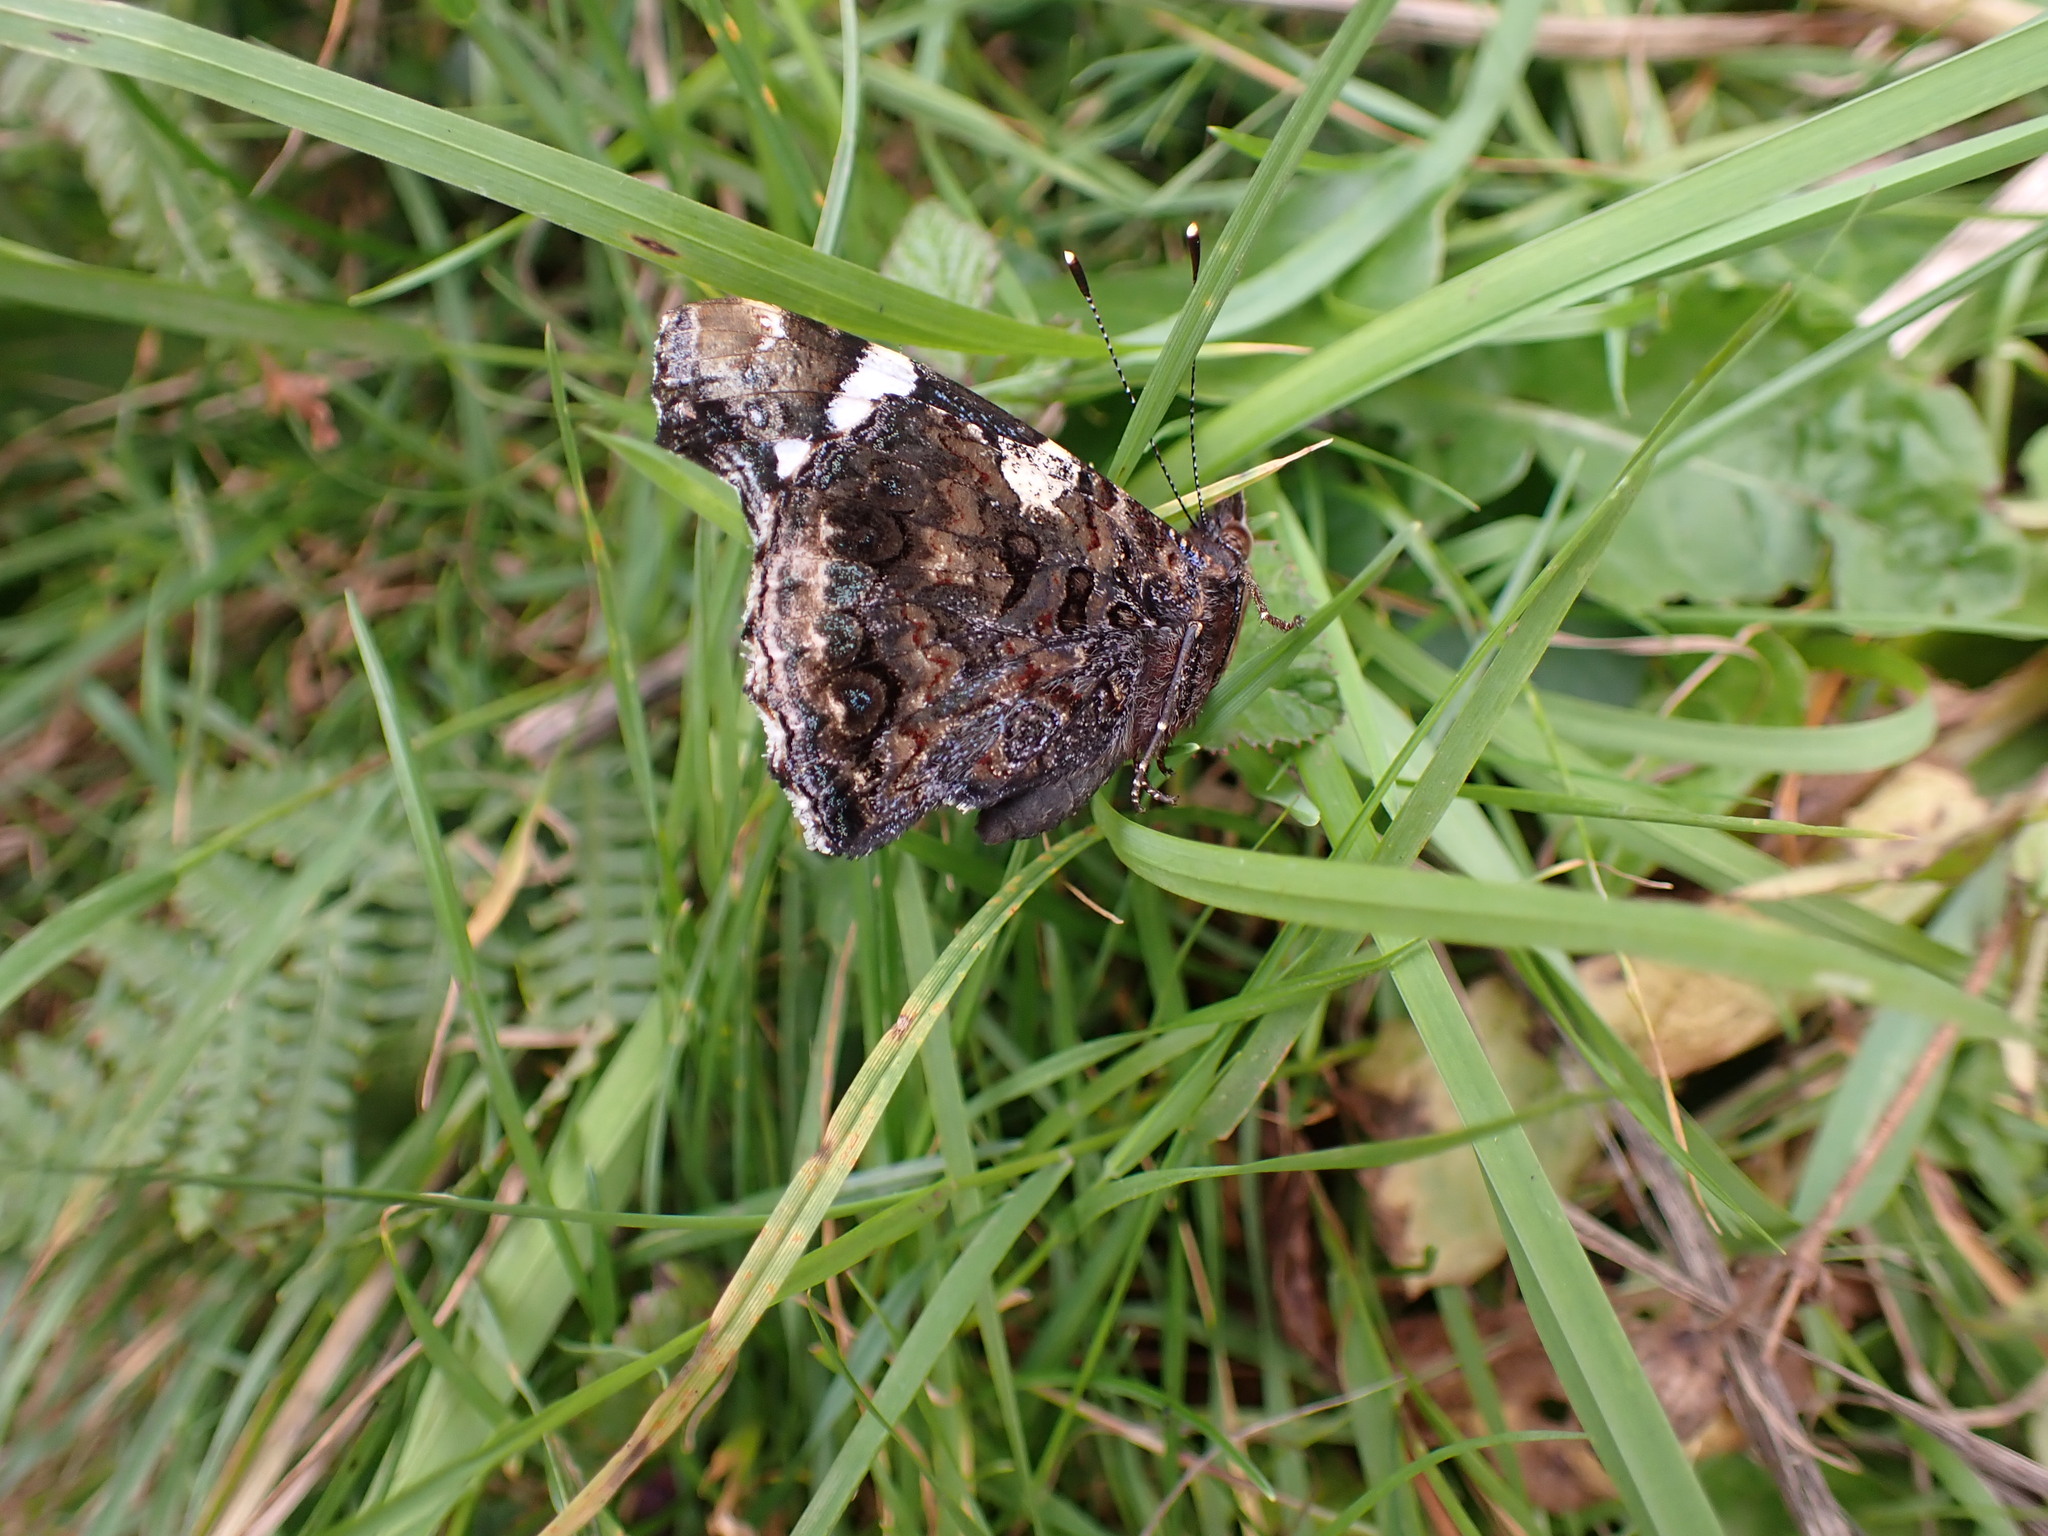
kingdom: Animalia
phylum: Arthropoda
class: Insecta
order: Lepidoptera
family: Nymphalidae
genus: Vanessa
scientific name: Vanessa atalanta
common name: Red admiral
